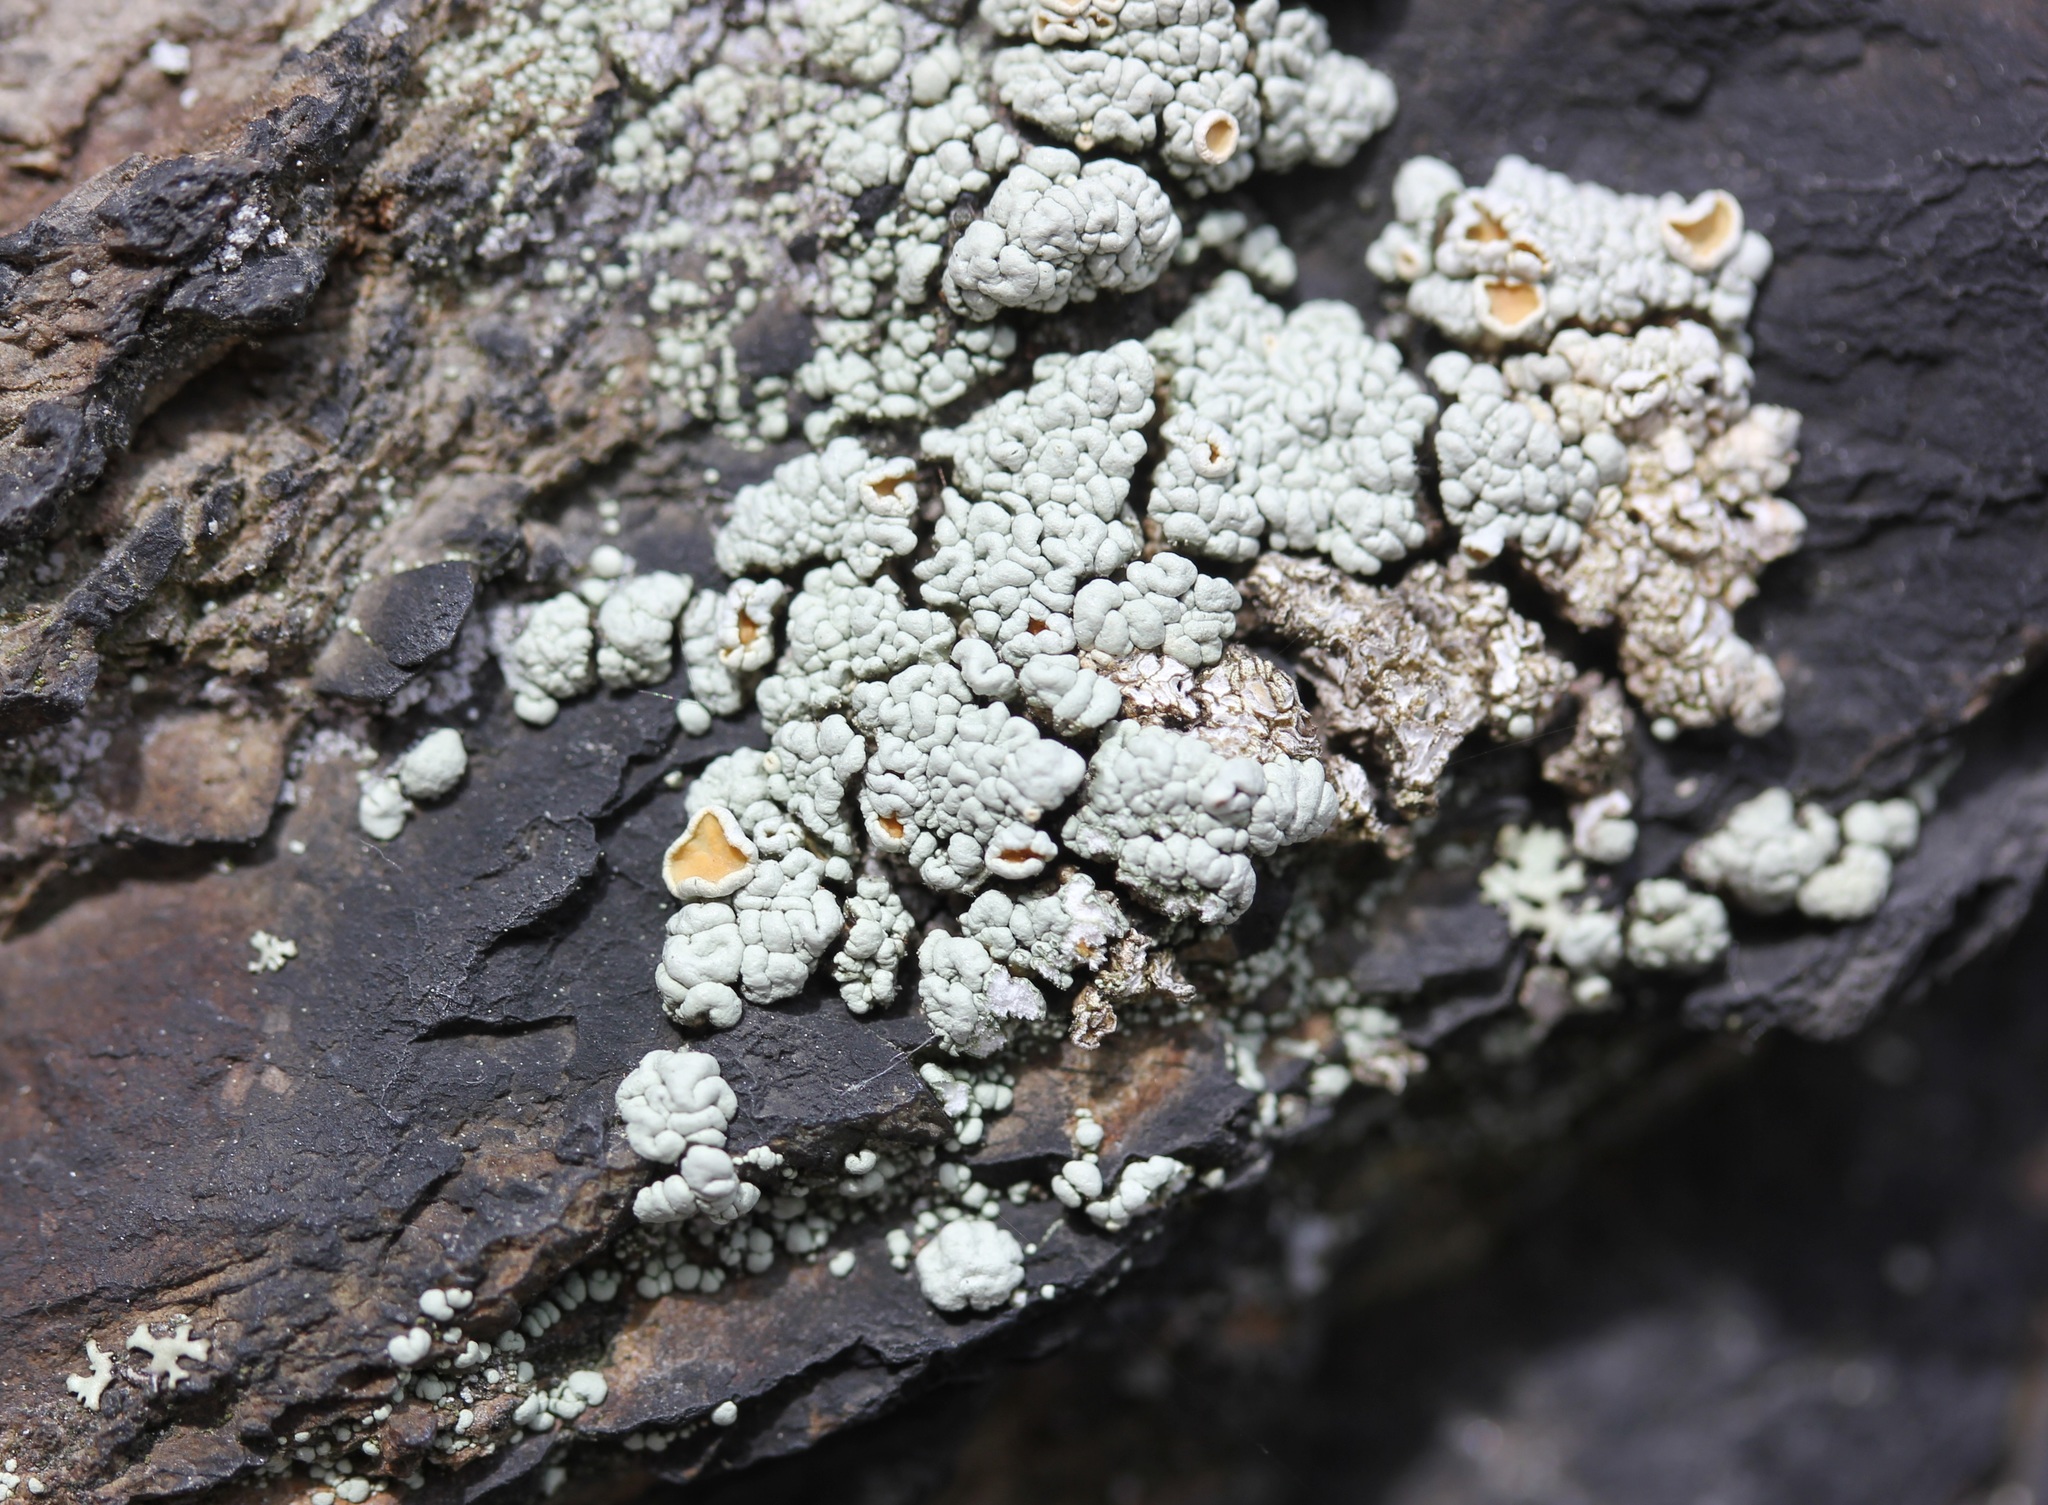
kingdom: Fungi
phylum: Ascomycota
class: Lecanoromycetes
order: Lecanorales
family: Lecanoraceae
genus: Sedelnikovaea
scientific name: Sedelnikovaea subdiscrepans
